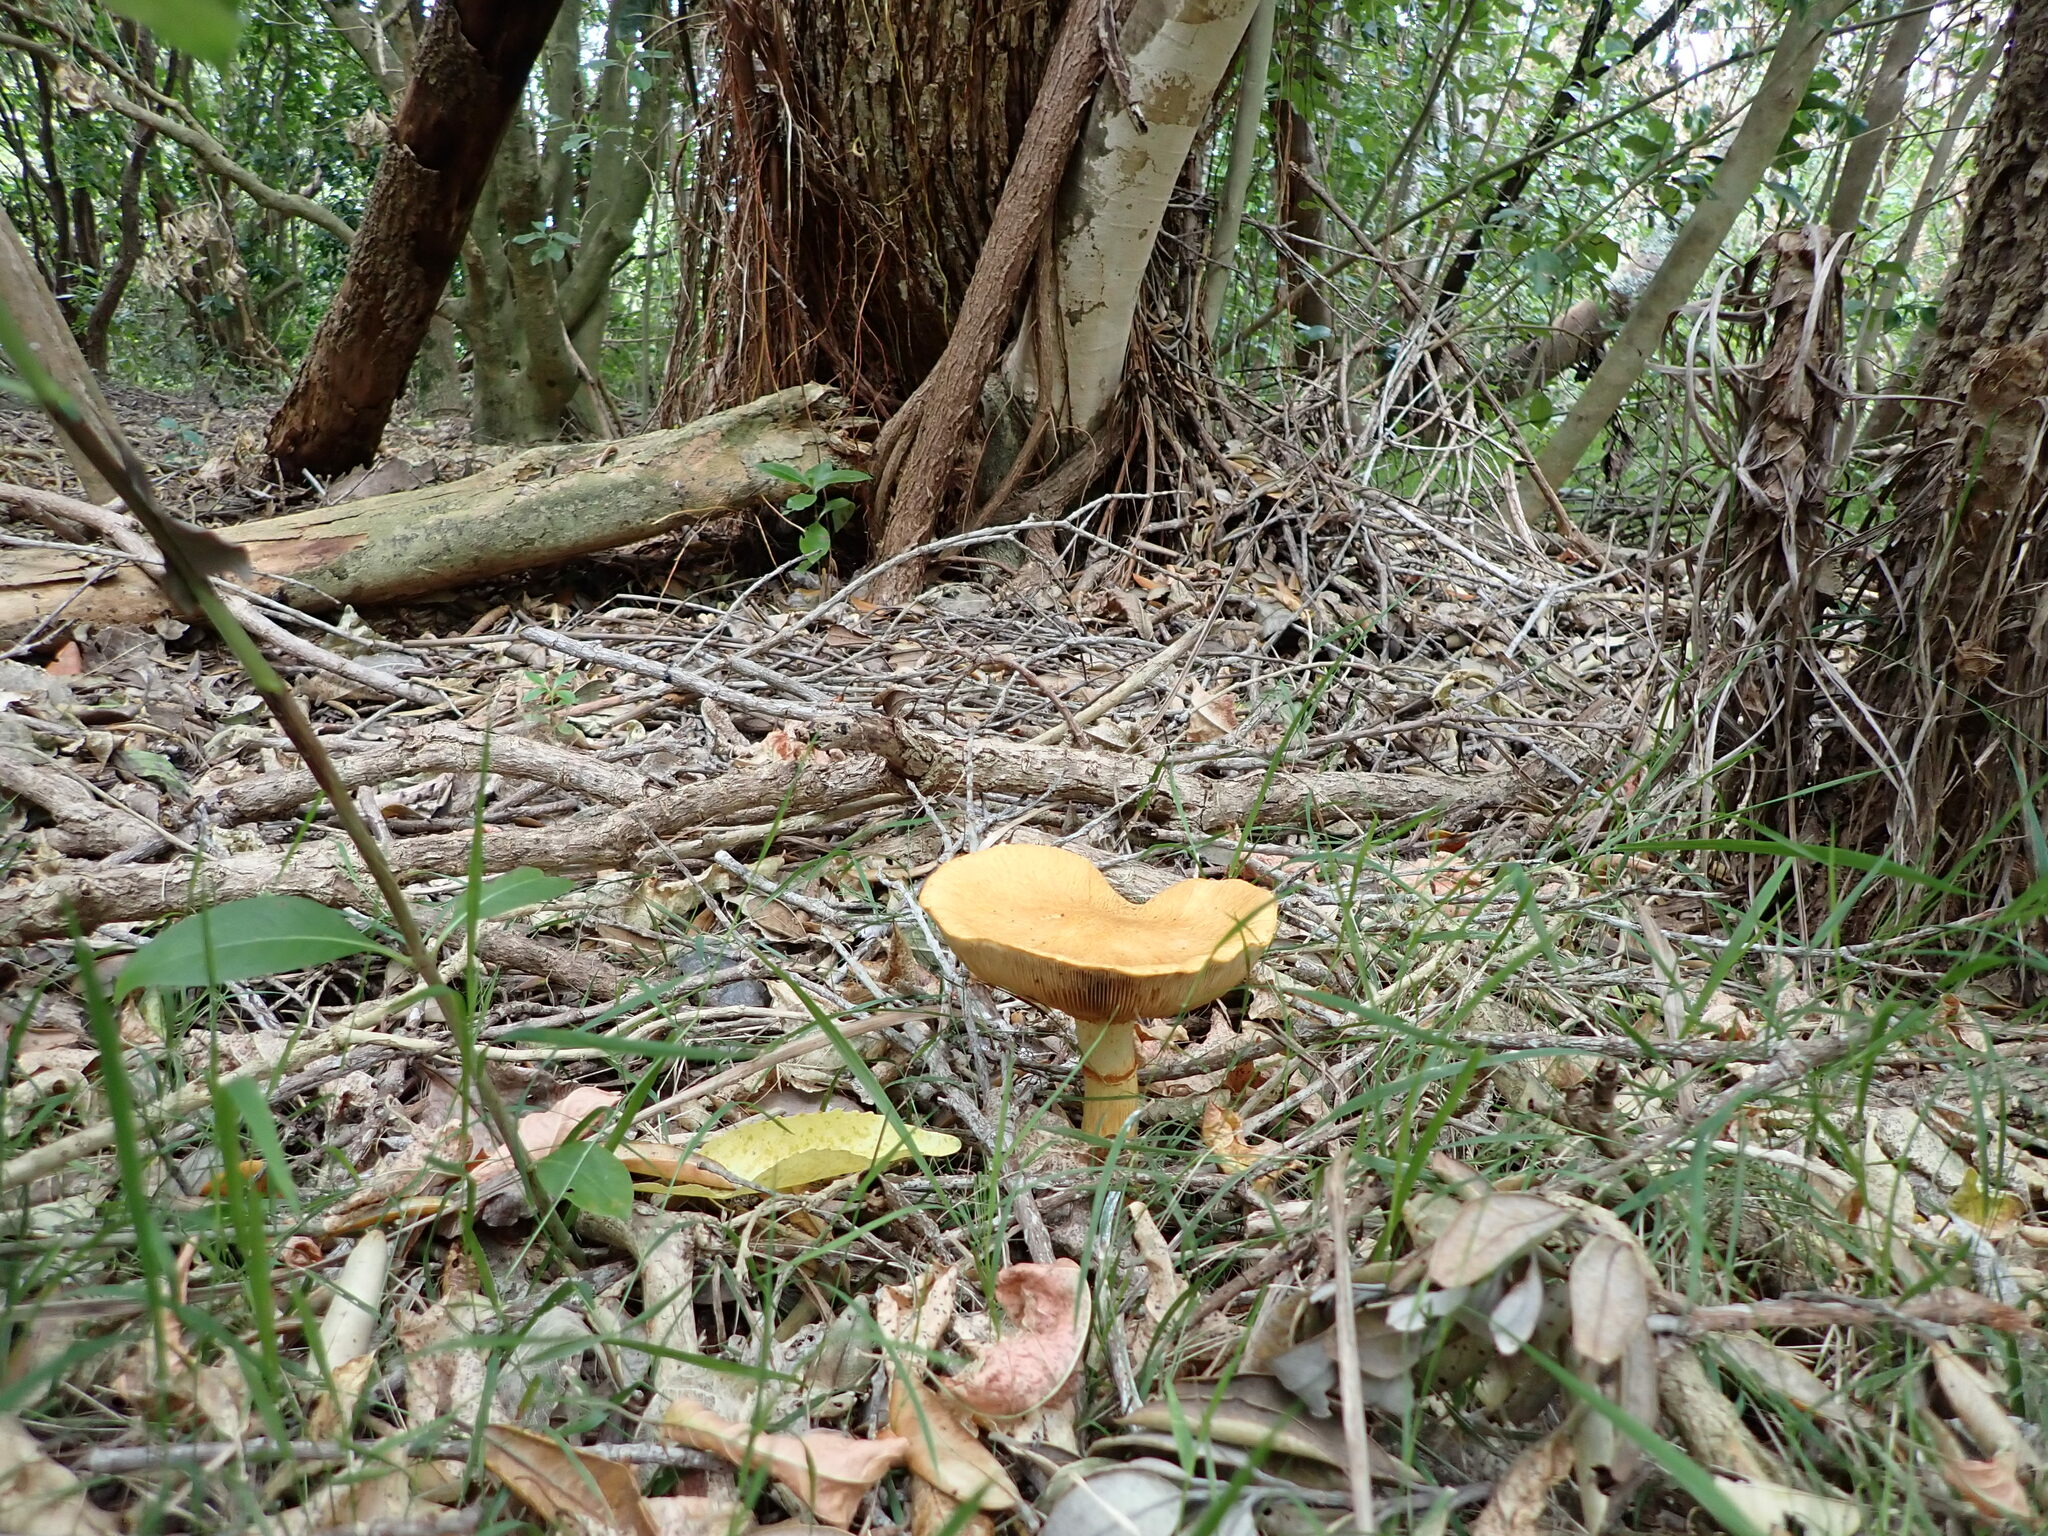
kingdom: Fungi
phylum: Basidiomycota
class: Agaricomycetes
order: Agaricales
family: Hymenogastraceae
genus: Gymnopilus
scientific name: Gymnopilus junonius
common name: Spectacular rustgill
